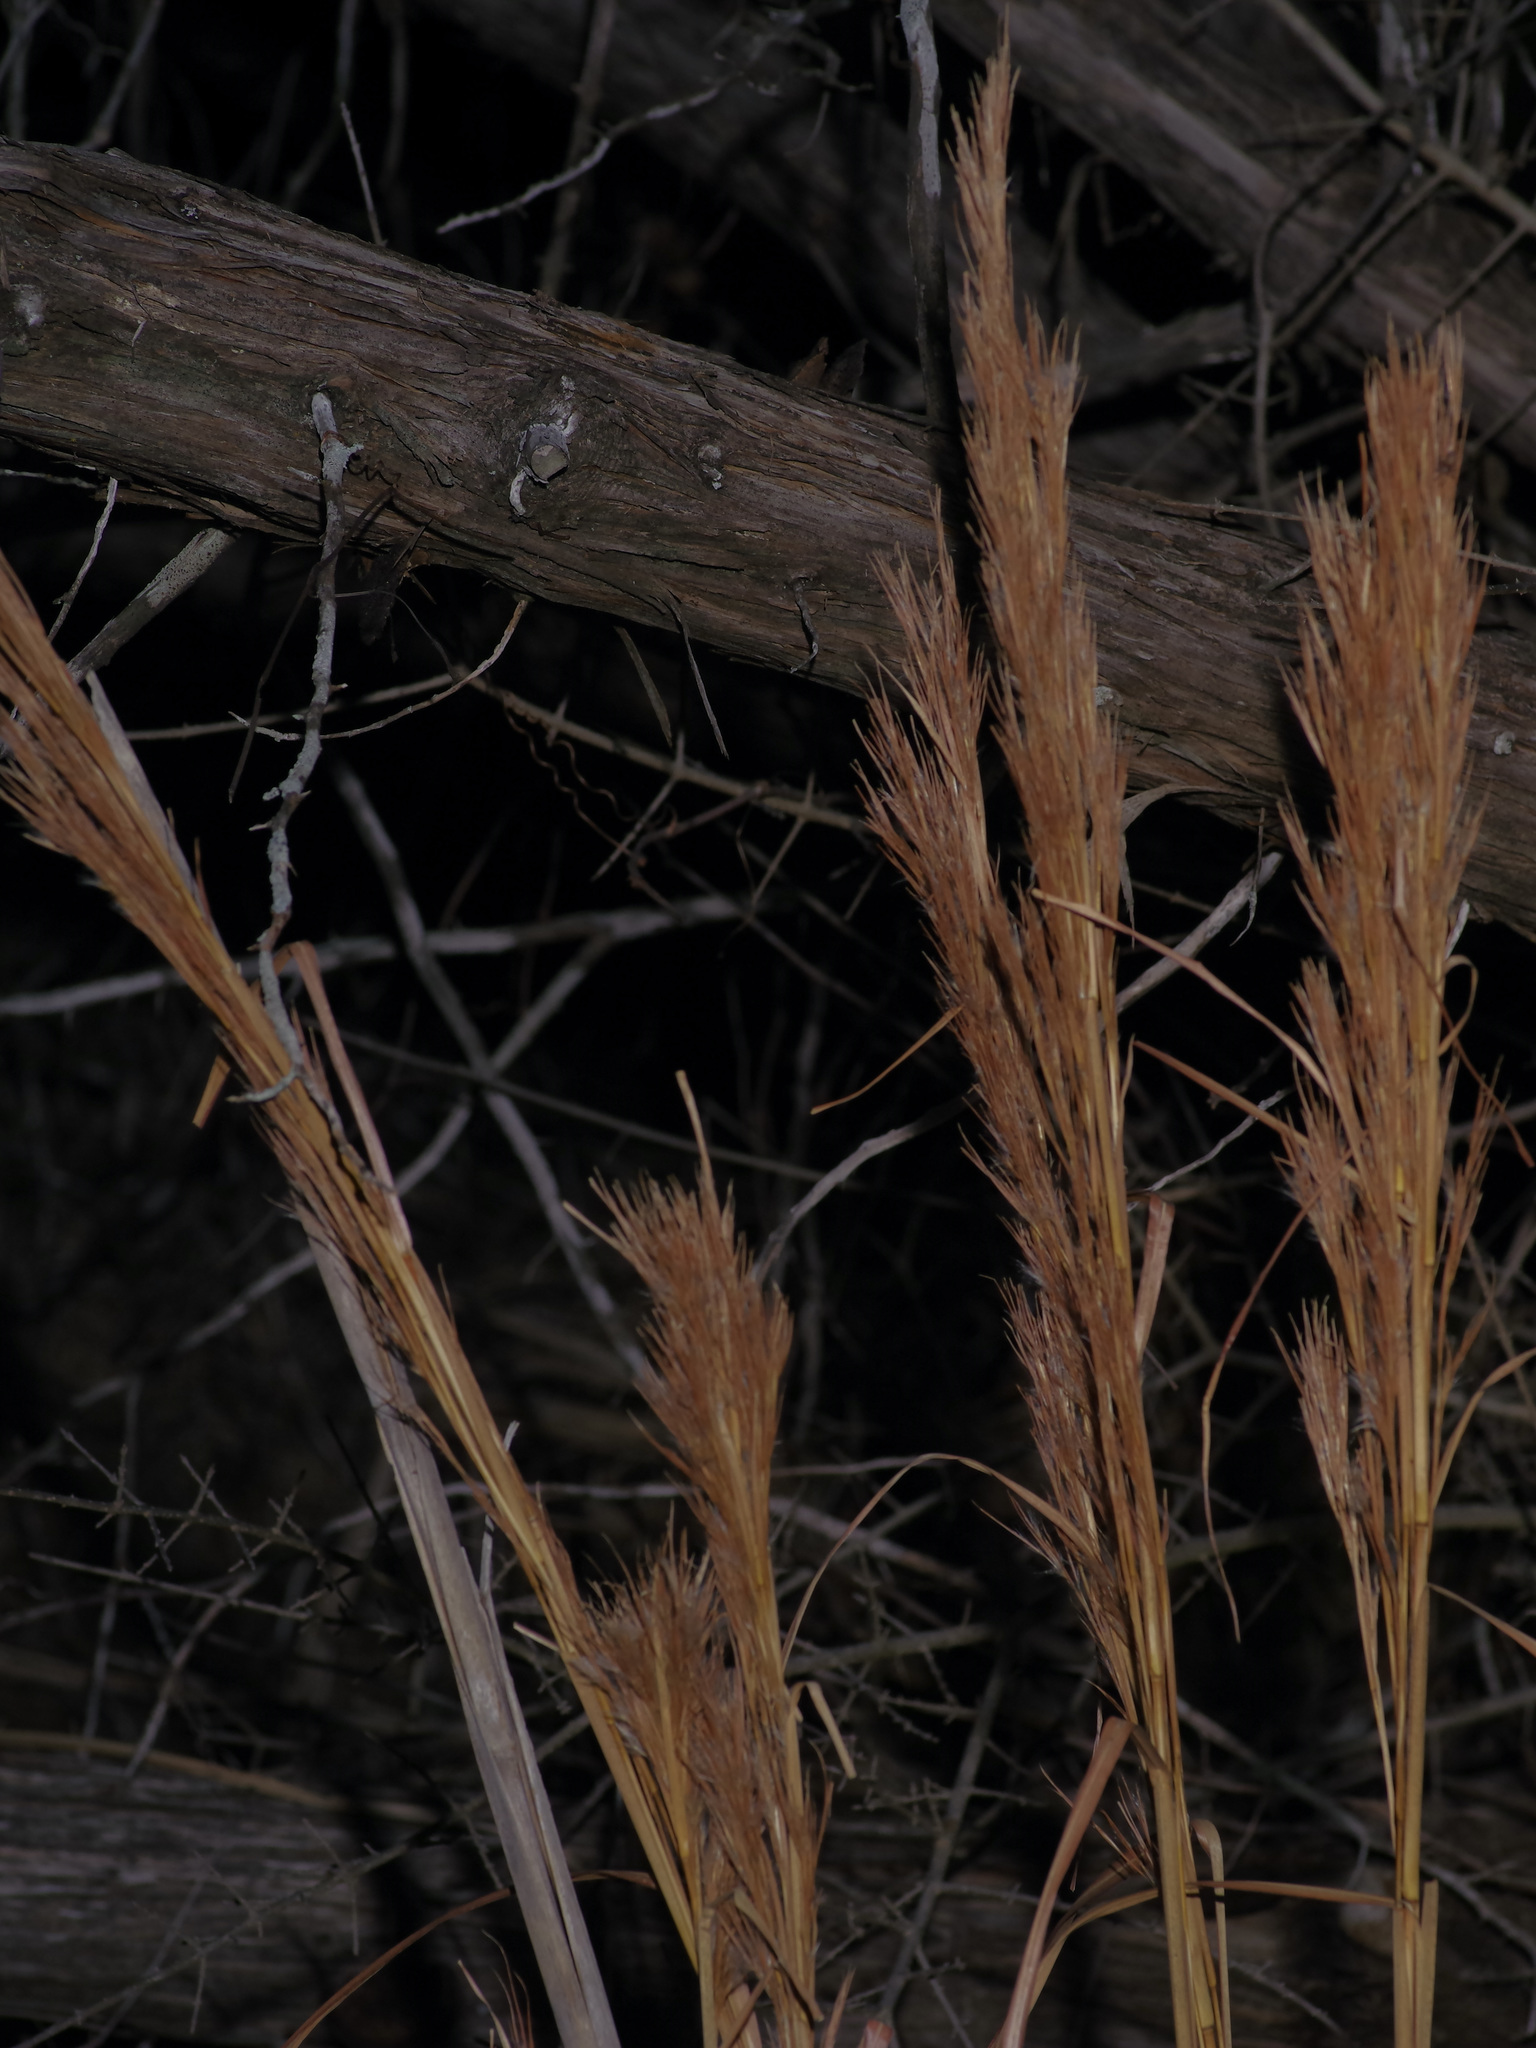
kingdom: Plantae
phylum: Tracheophyta
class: Liliopsida
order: Poales
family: Poaceae
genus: Andropogon
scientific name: Andropogon tenuispatheus
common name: Bushy bluestem
